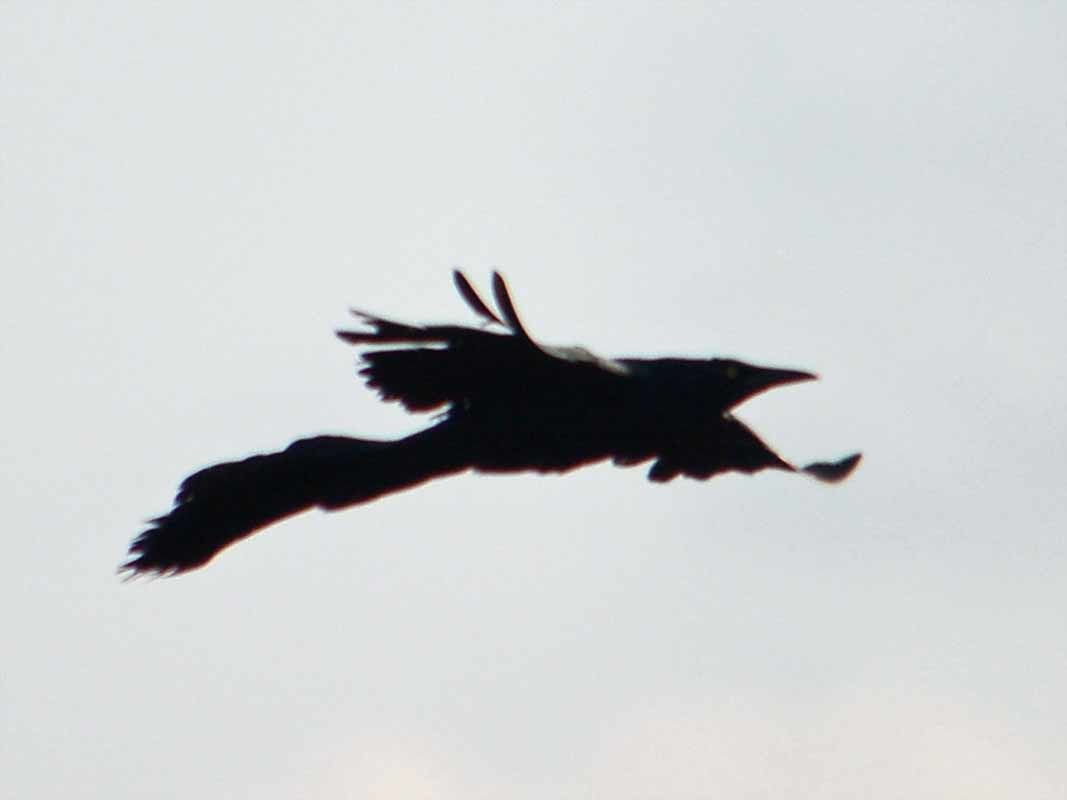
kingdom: Animalia
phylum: Chordata
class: Aves
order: Passeriformes
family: Icteridae
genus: Quiscalus
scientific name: Quiscalus mexicanus
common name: Great-tailed grackle
